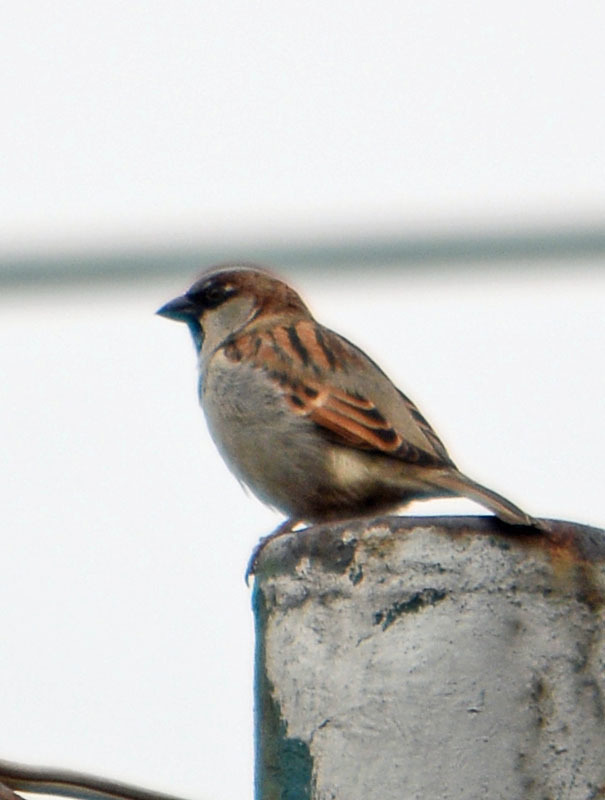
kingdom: Animalia
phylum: Chordata
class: Aves
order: Passeriformes
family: Passeridae
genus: Passer
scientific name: Passer domesticus
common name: House sparrow
